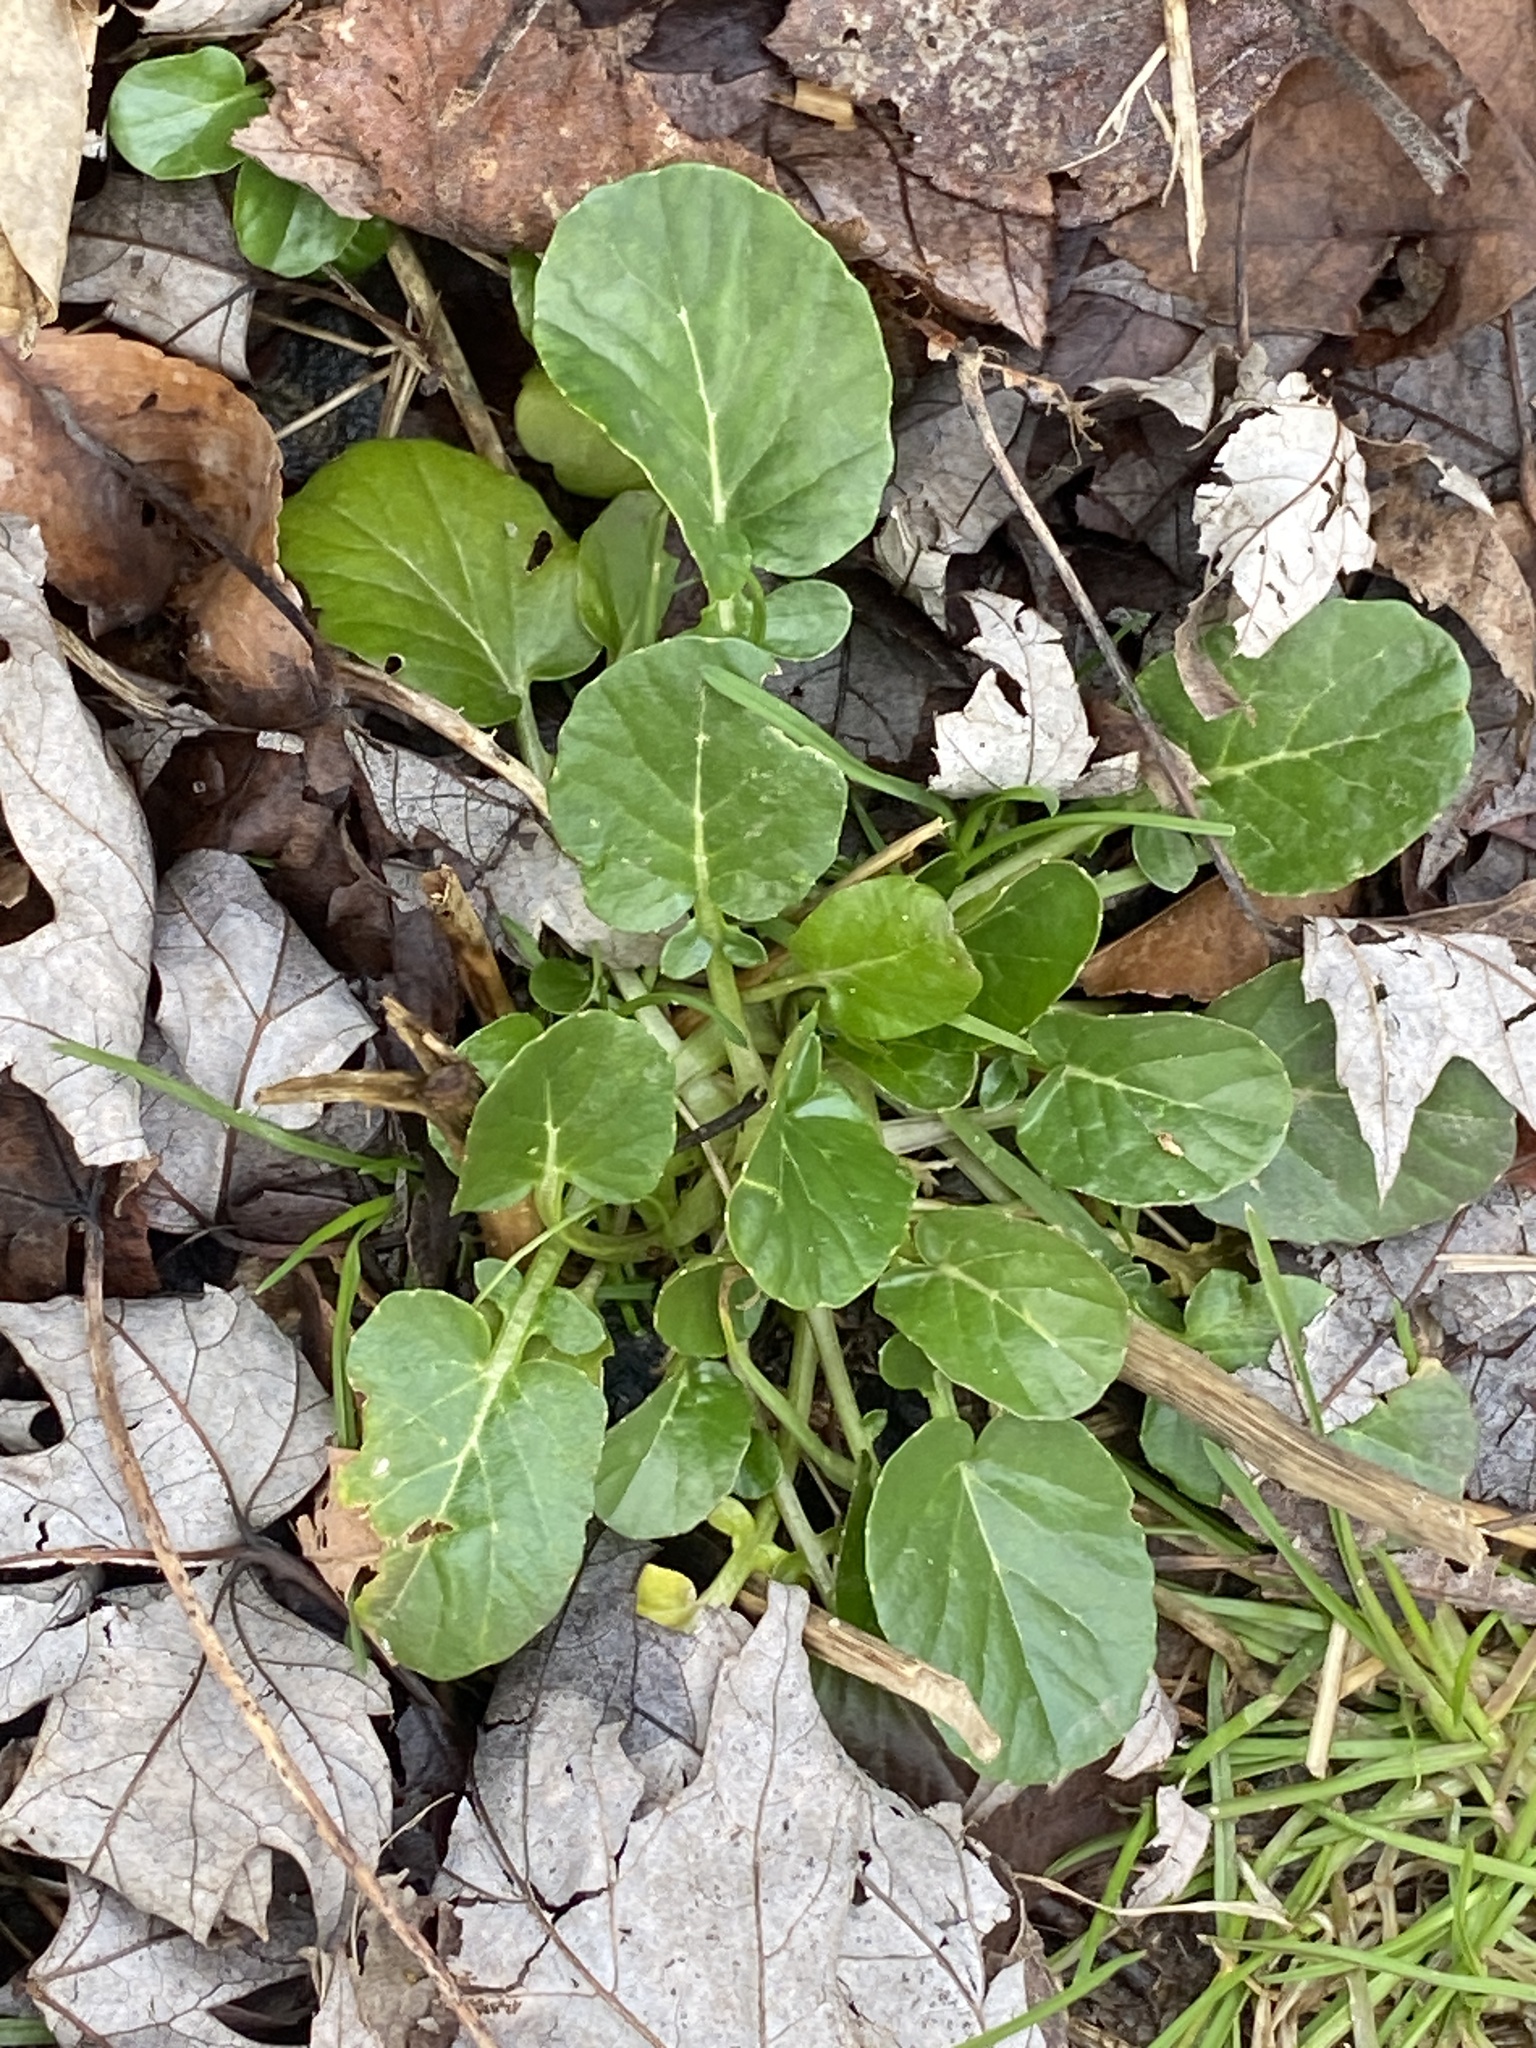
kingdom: Plantae
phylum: Tracheophyta
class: Magnoliopsida
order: Brassicales
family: Brassicaceae
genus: Barbarea
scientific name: Barbarea vulgaris
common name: Cressy-greens
